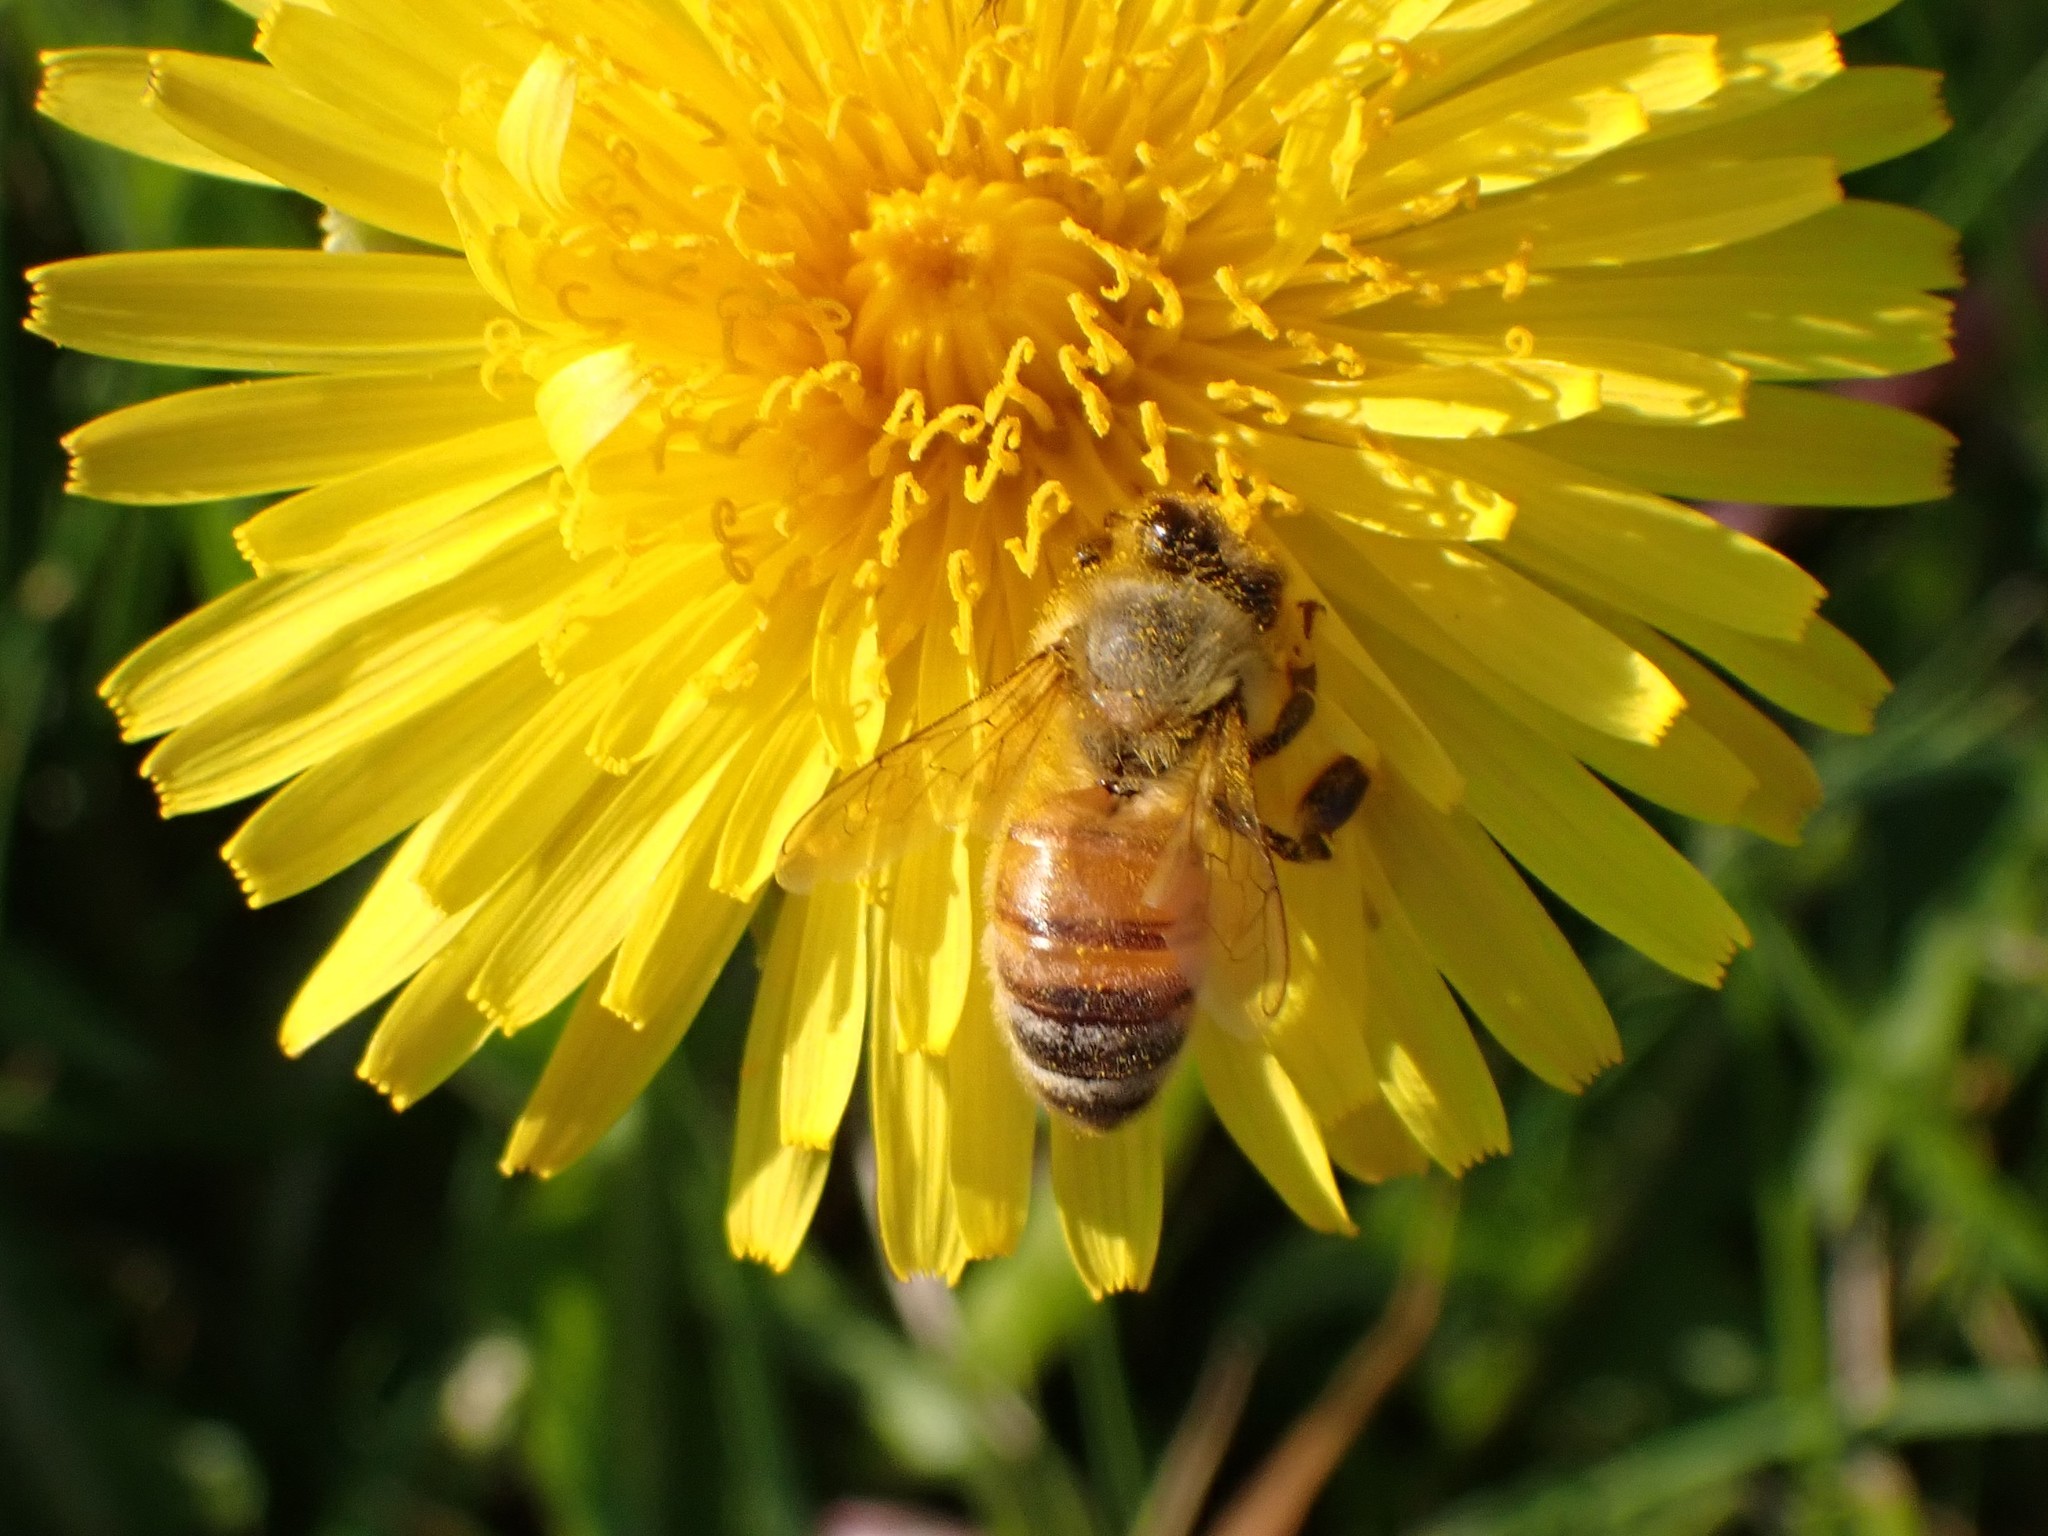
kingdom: Animalia
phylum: Arthropoda
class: Insecta
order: Hymenoptera
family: Apidae
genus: Apis
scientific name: Apis mellifera
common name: Honey bee
